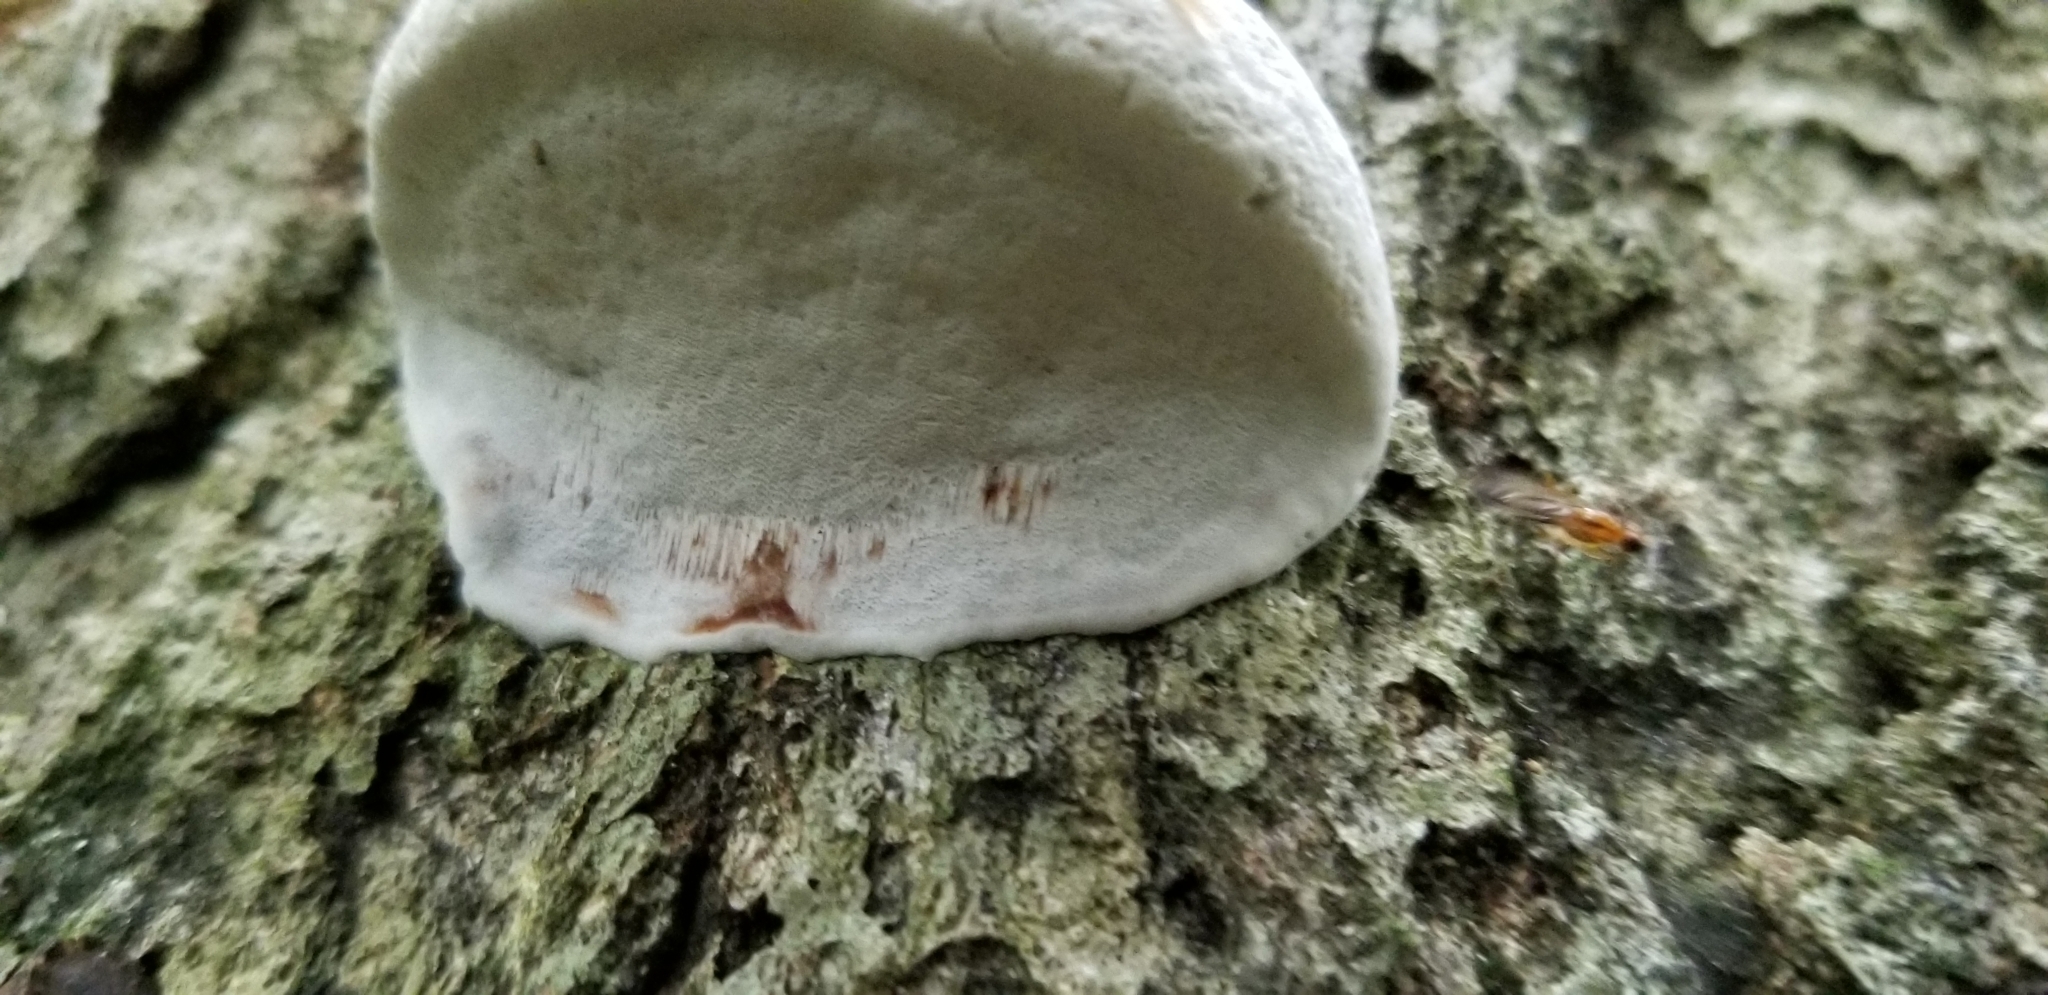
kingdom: Fungi
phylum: Basidiomycota
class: Agaricomycetes
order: Polyporales
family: Polyporaceae
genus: Ganoderma
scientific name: Ganoderma applanatum
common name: Artist's bracket
